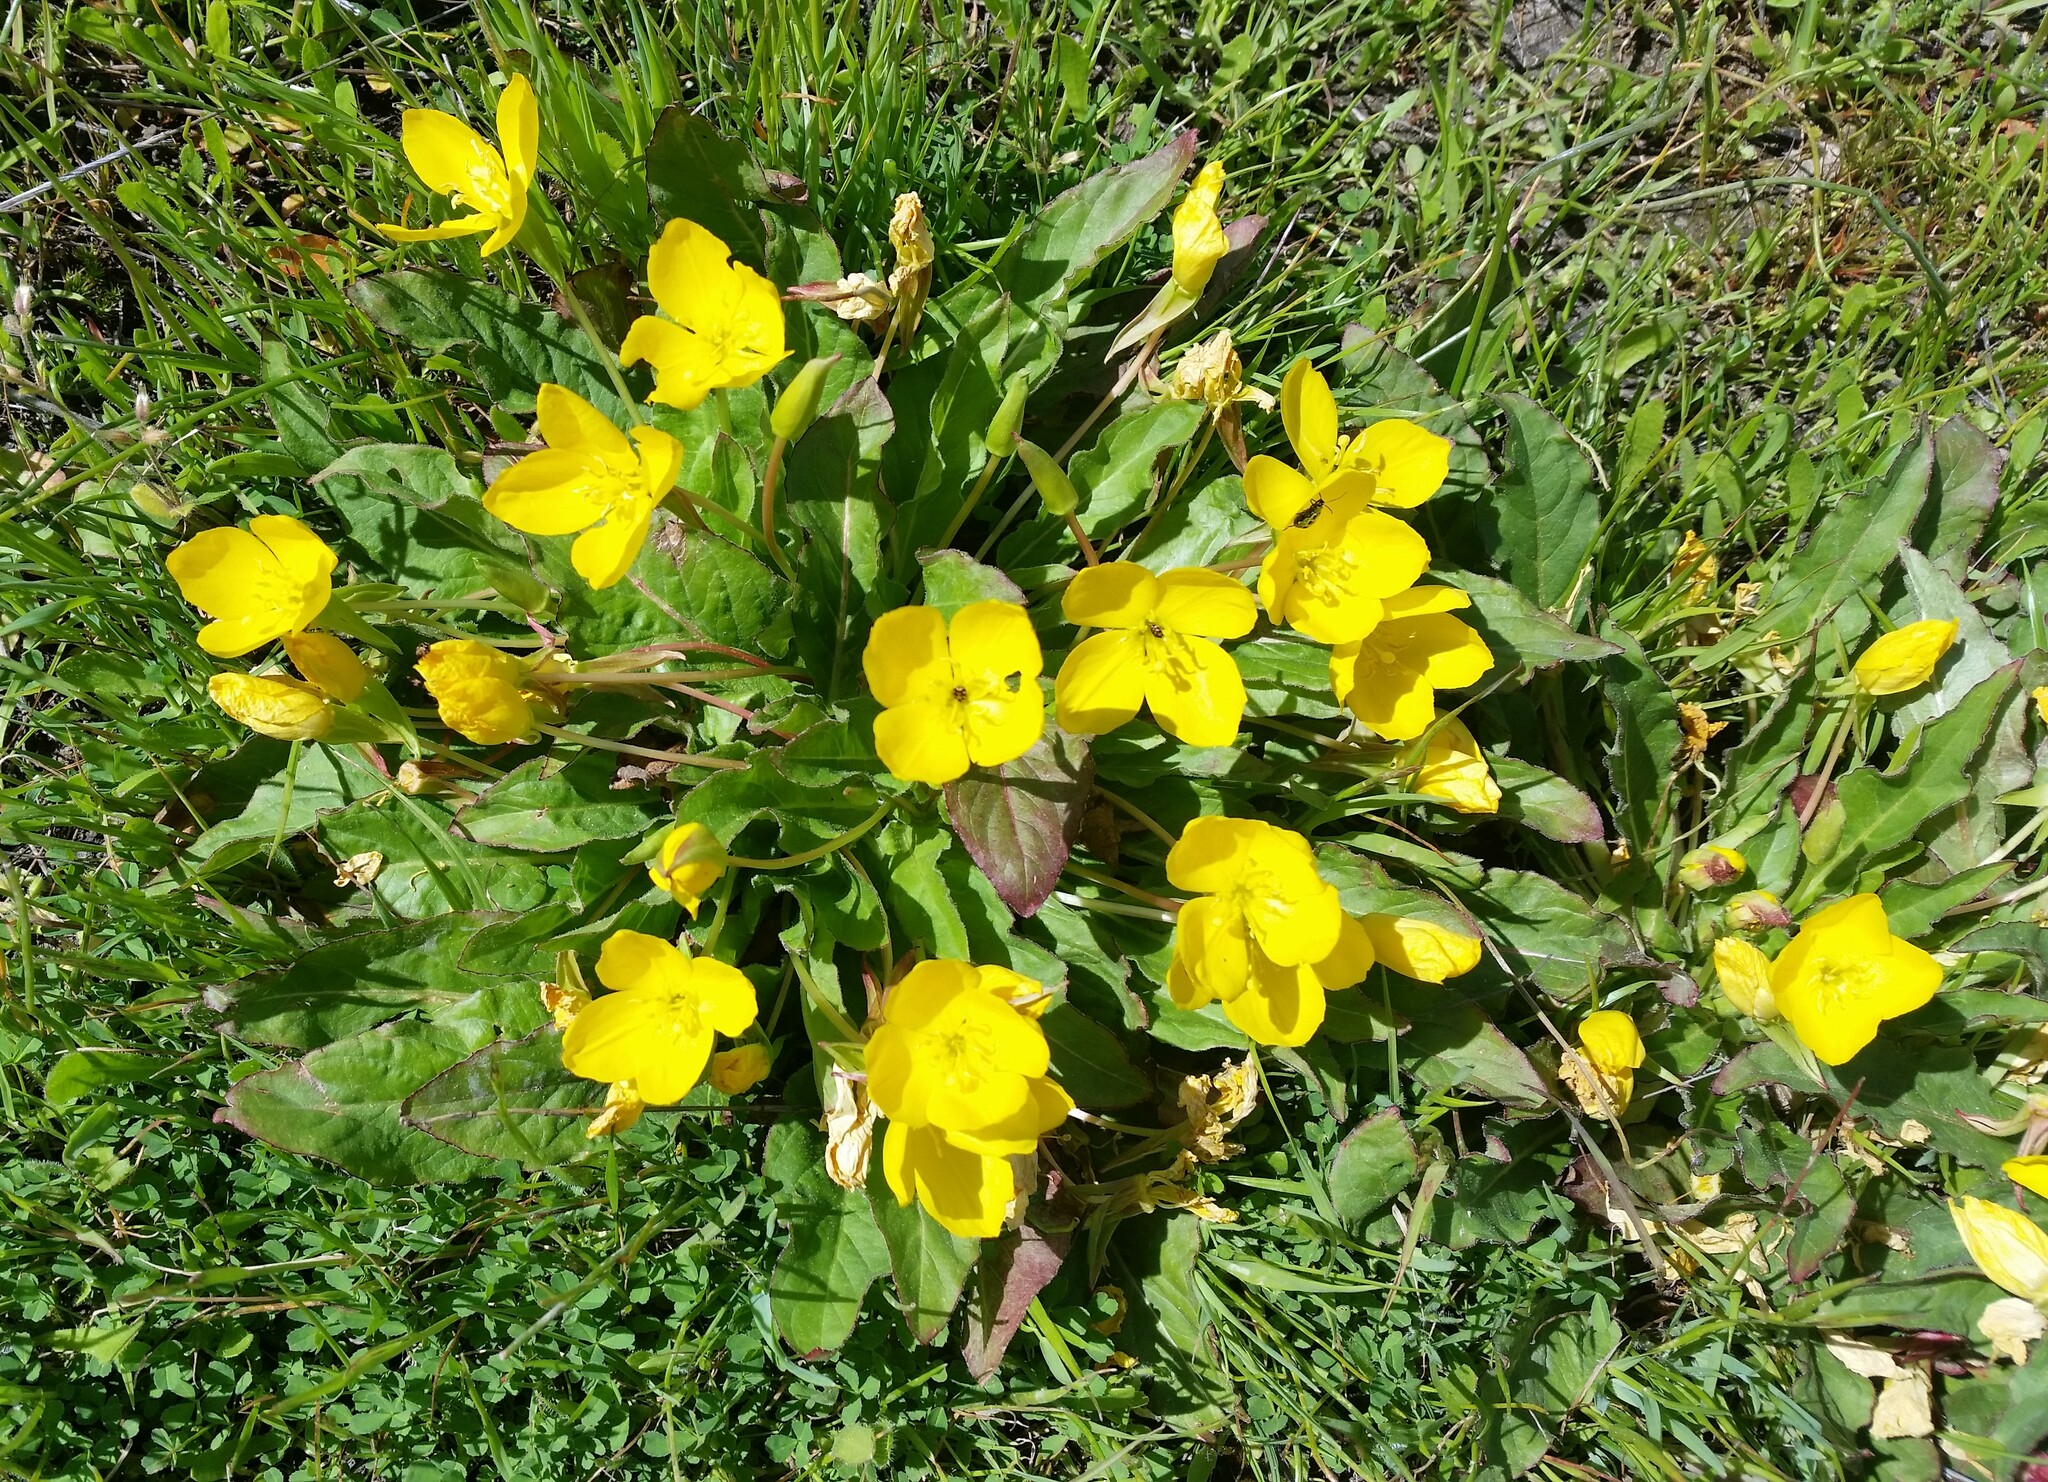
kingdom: Plantae
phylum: Tracheophyta
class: Magnoliopsida
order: Myrtales
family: Onagraceae
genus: Taraxia
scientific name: Taraxia ovata
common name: Goldeneggs
